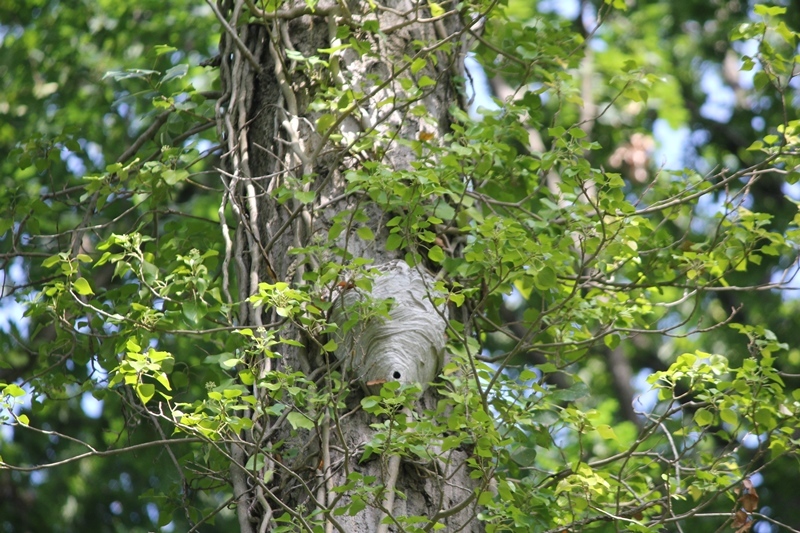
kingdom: Animalia
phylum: Arthropoda
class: Insecta
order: Hymenoptera
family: Vespidae
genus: Dolichovespula
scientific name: Dolichovespula media
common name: Median wasp
